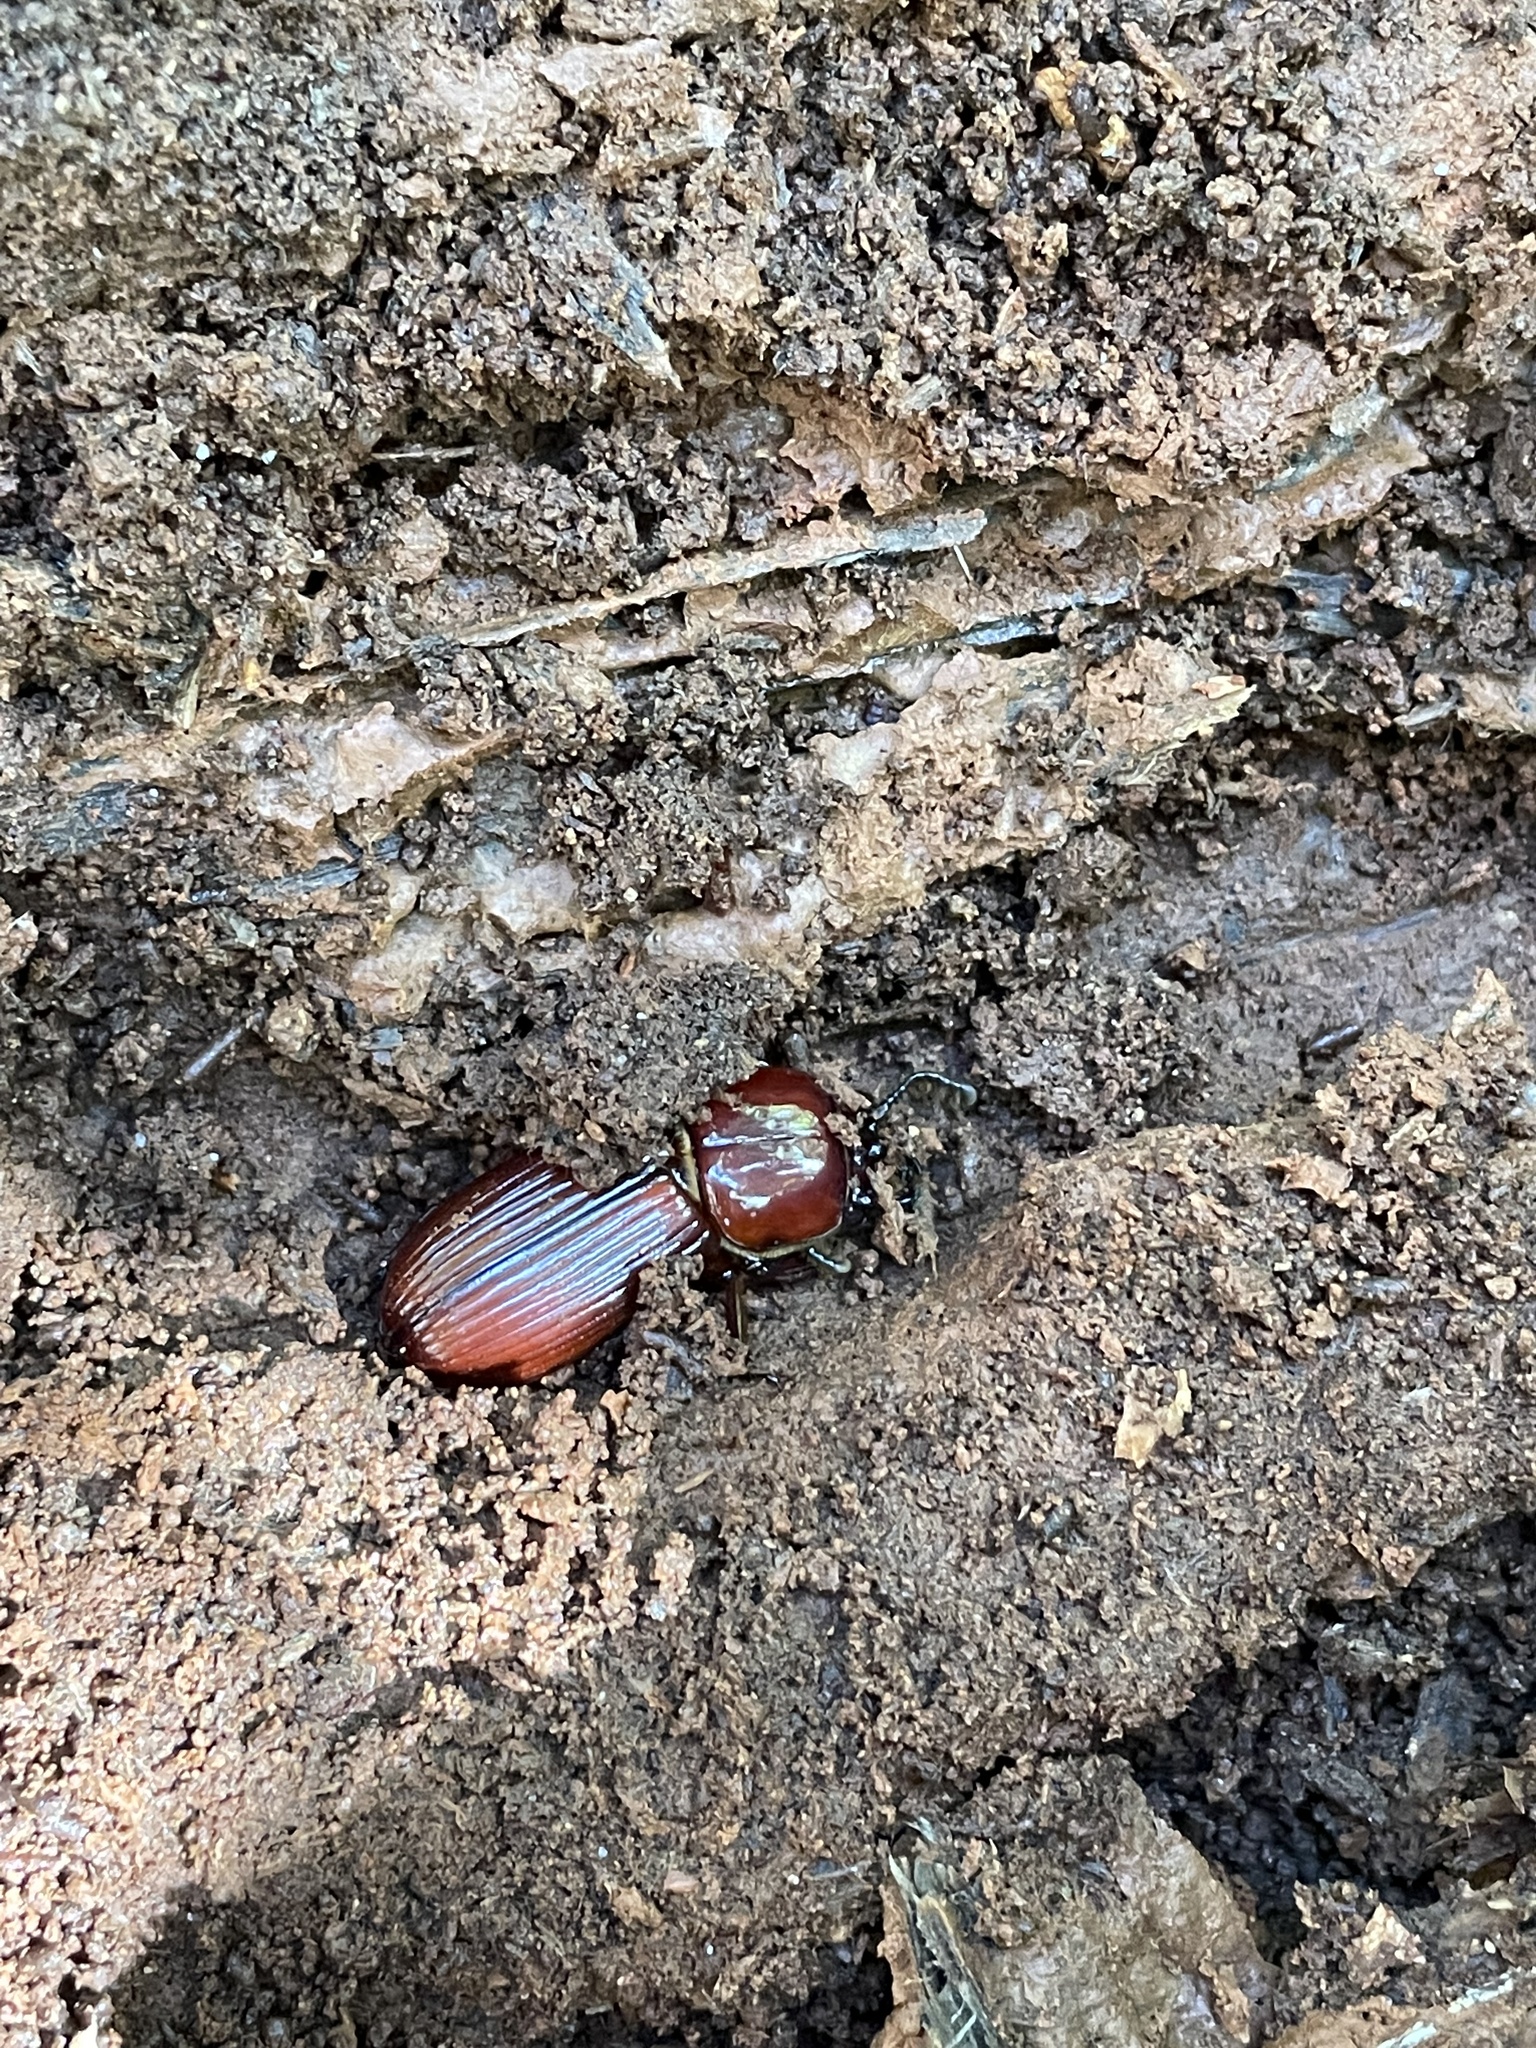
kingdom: Animalia
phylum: Arthropoda
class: Insecta
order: Coleoptera
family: Passalidae
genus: Odontotaenius
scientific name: Odontotaenius disjunctus
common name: Patent leather beetle
